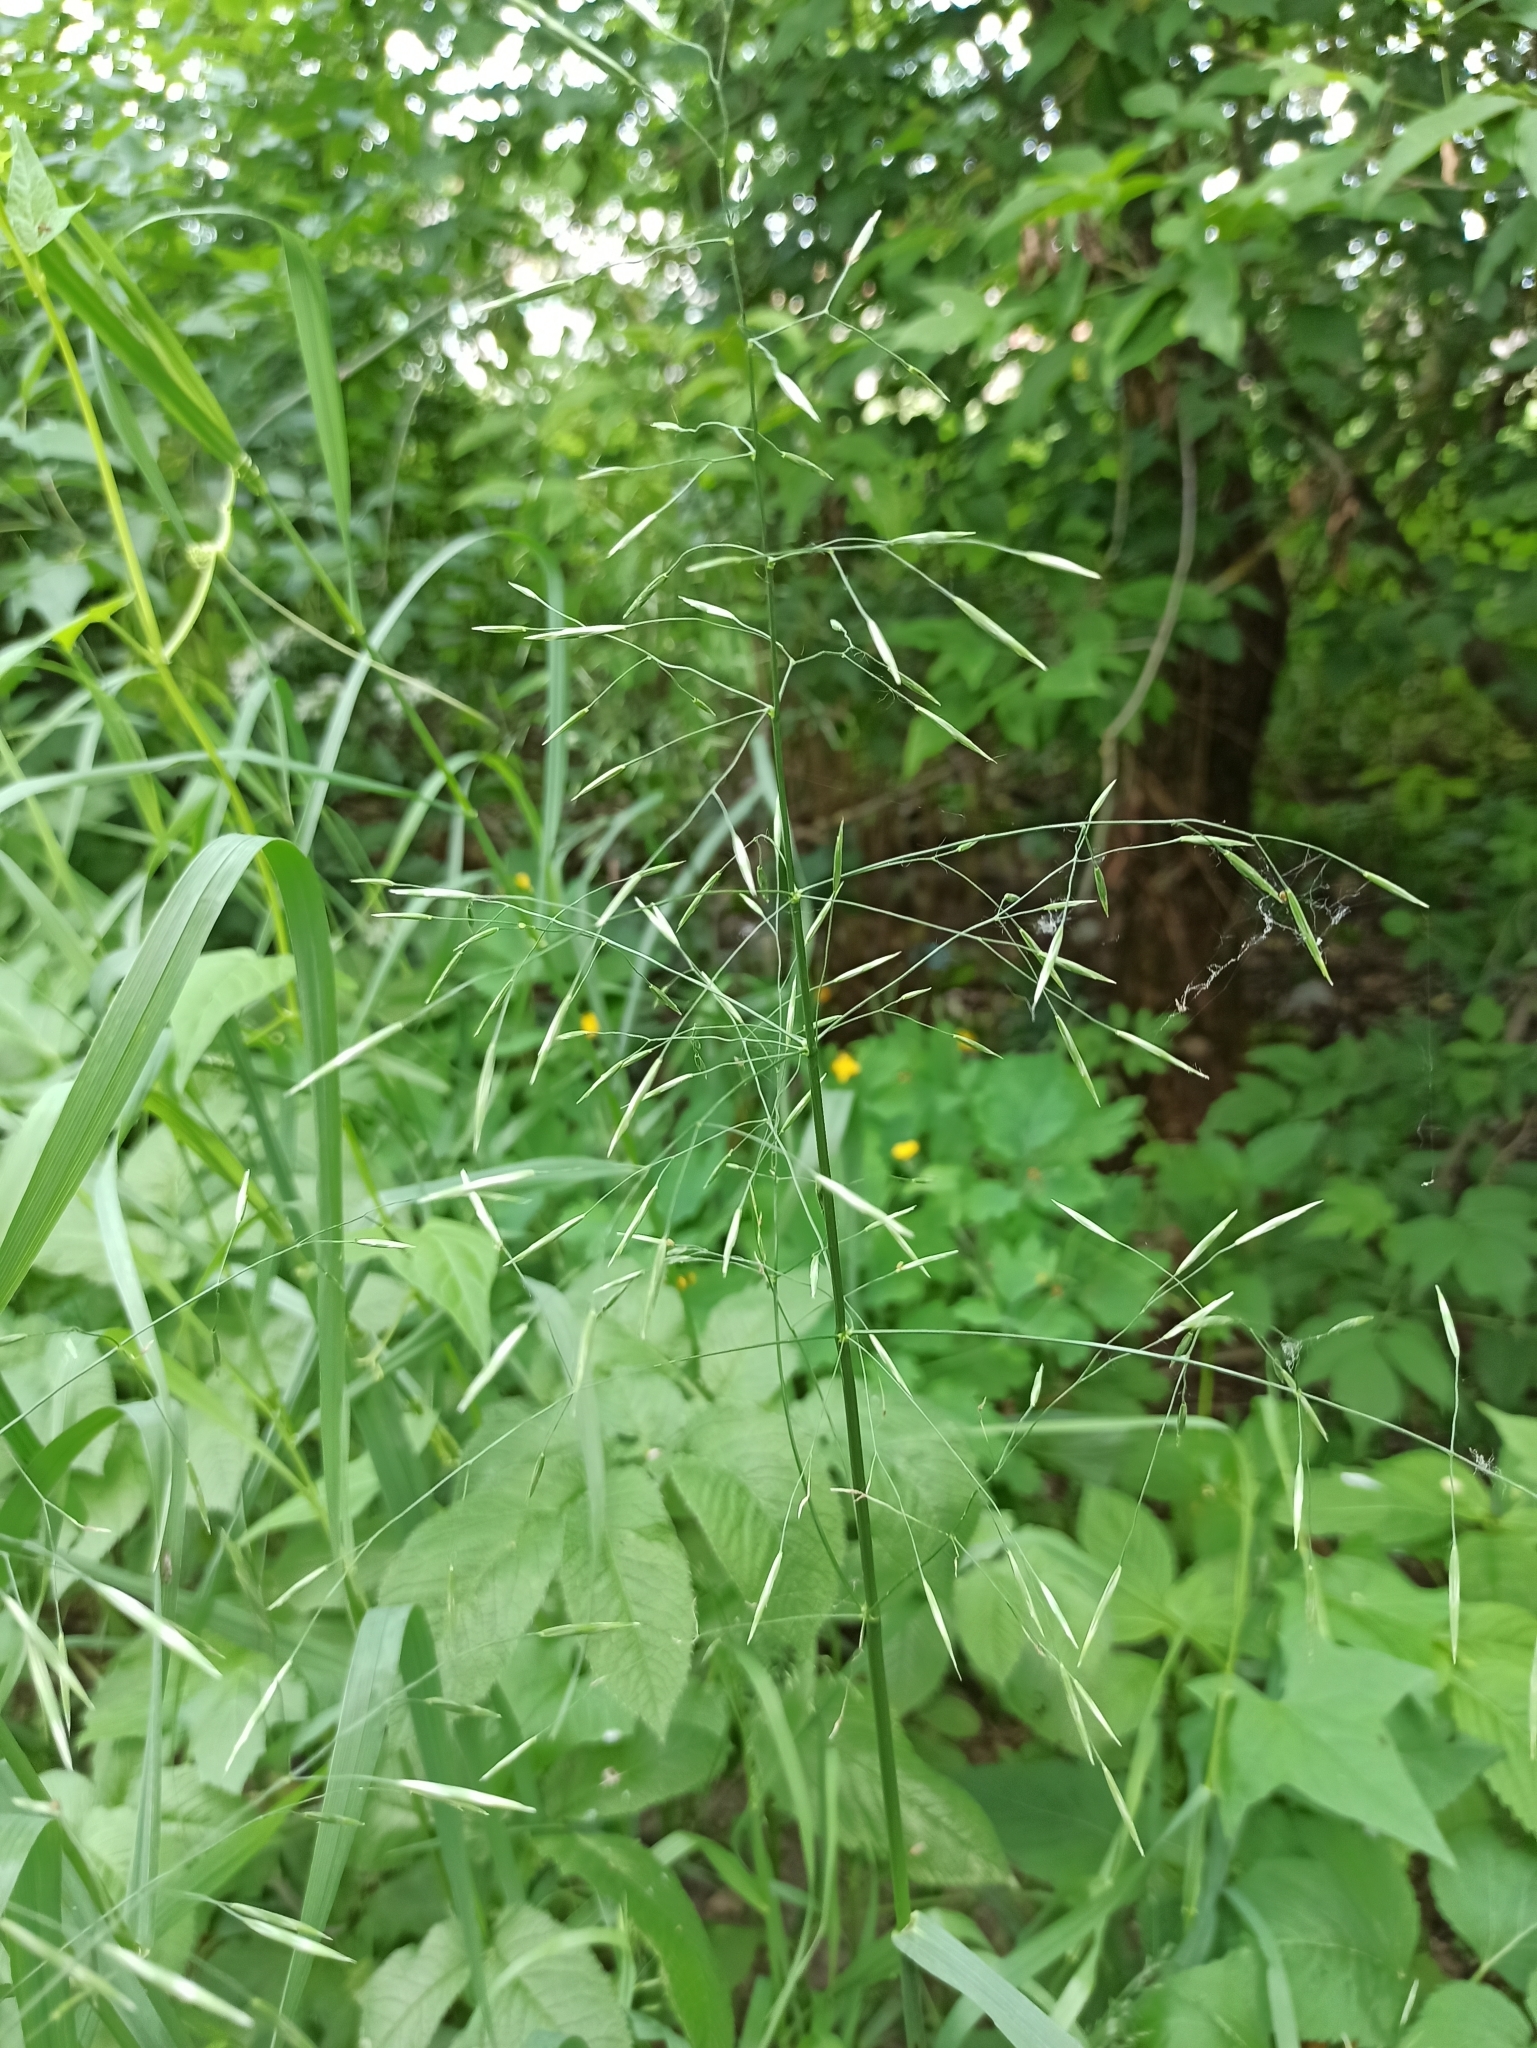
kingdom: Plantae
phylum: Tracheophyta
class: Liliopsida
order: Poales
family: Poaceae
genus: Bromus
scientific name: Bromus inermis
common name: Smooth brome
